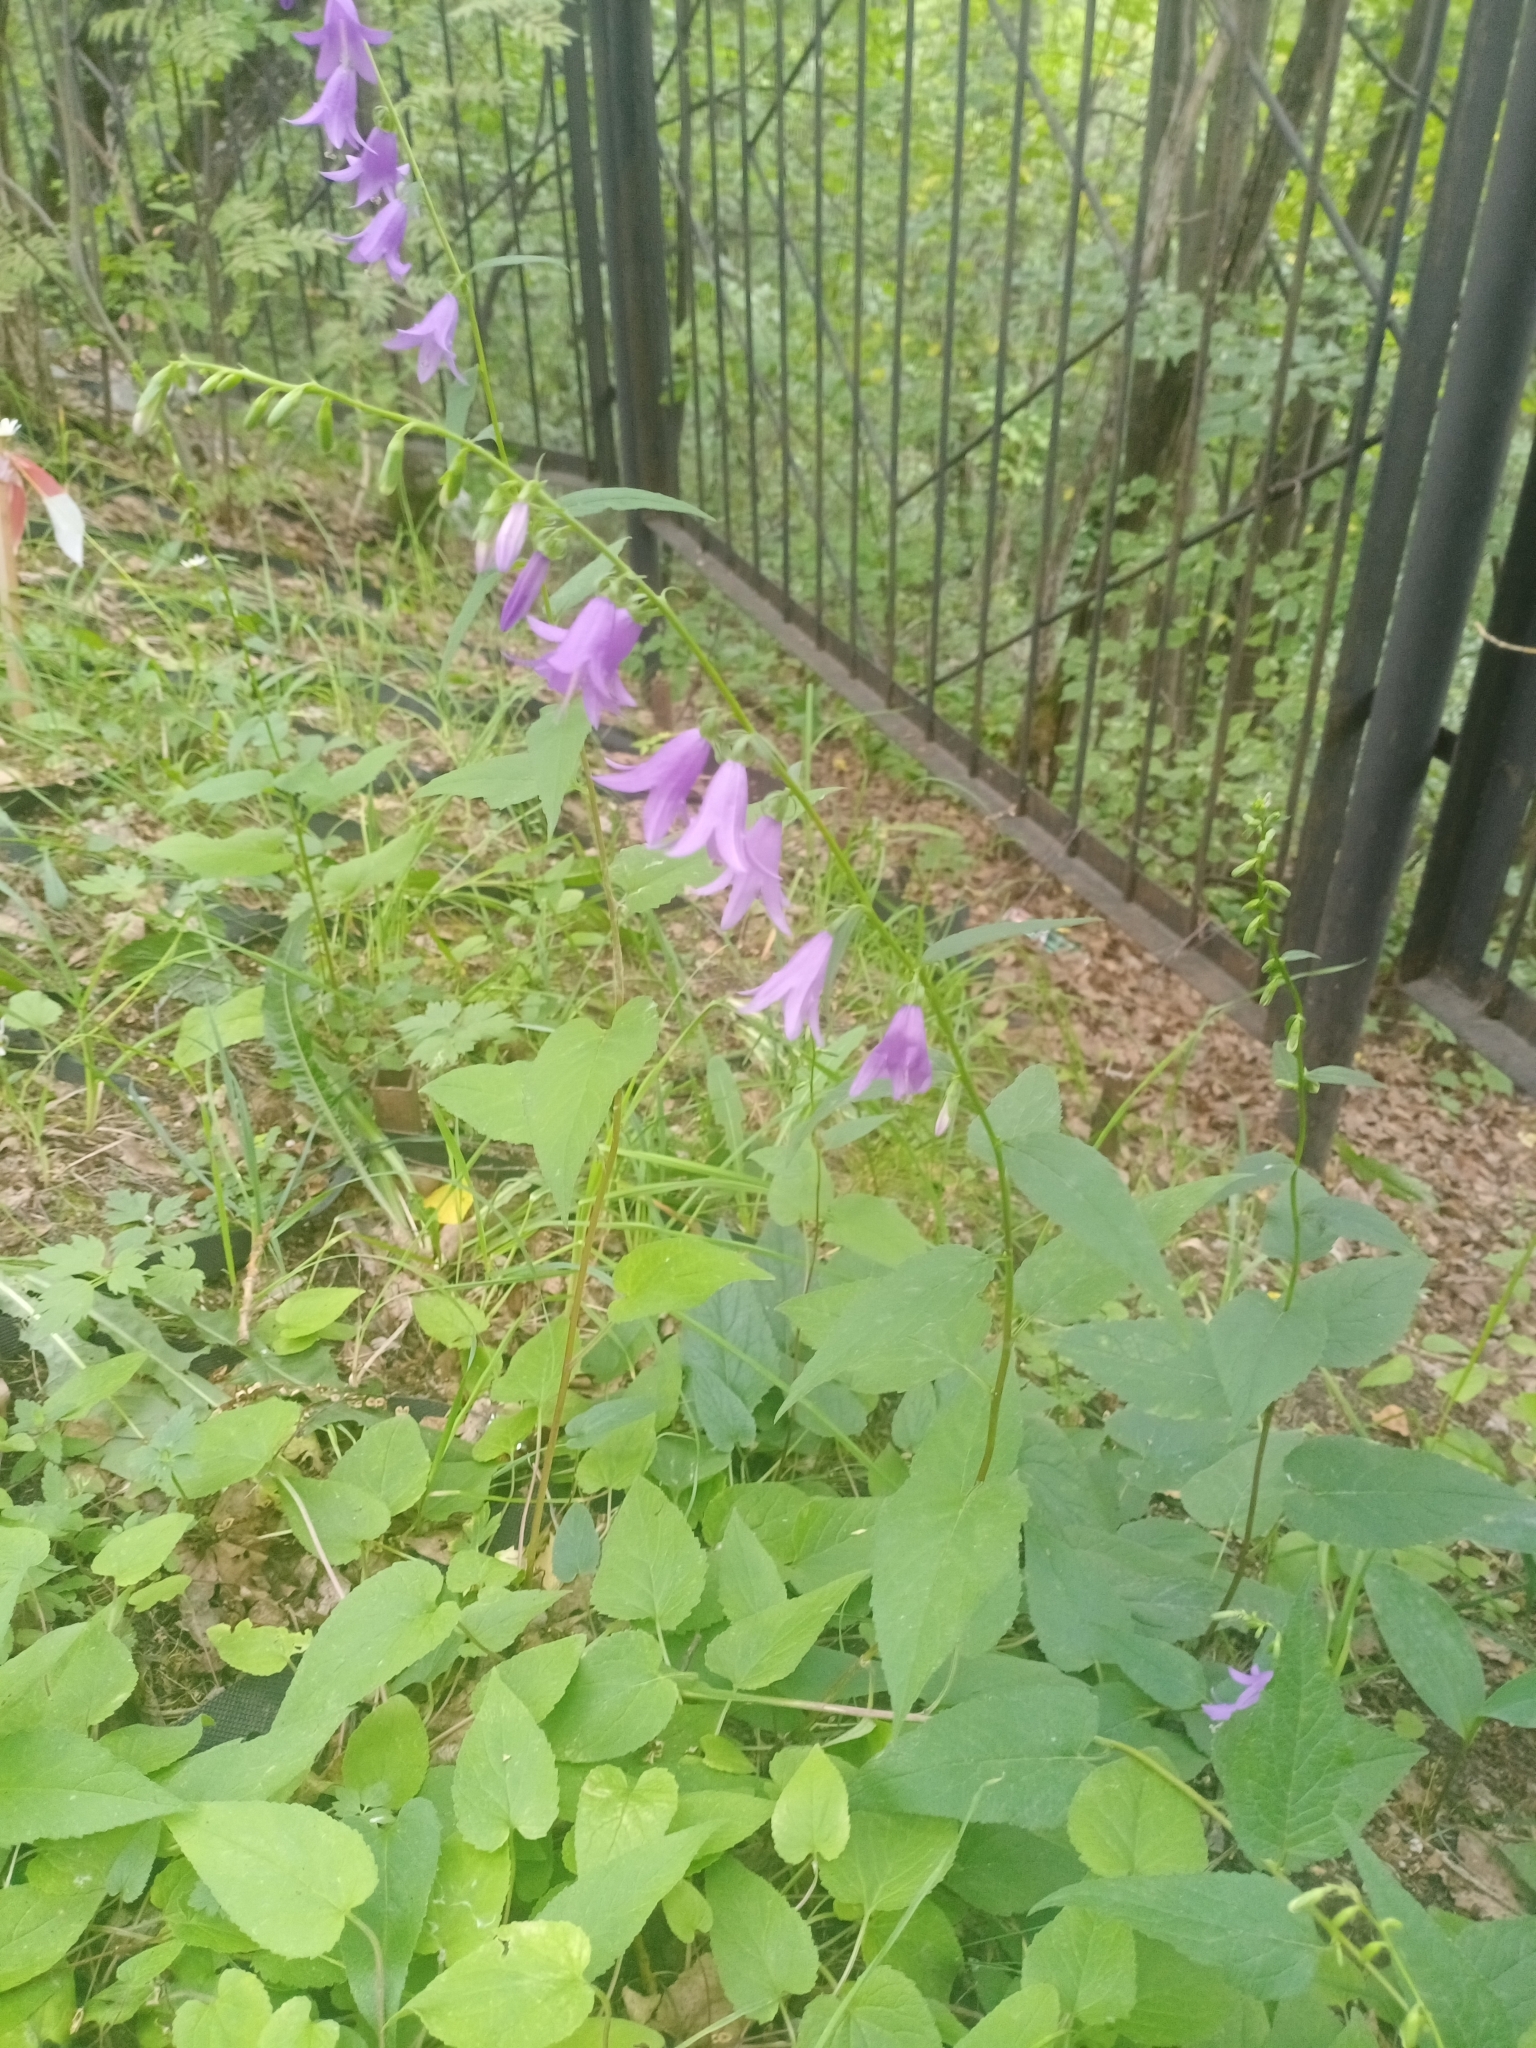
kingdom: Plantae
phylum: Tracheophyta
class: Magnoliopsida
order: Asterales
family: Campanulaceae
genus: Campanula
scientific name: Campanula rapunculoides
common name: Creeping bellflower
